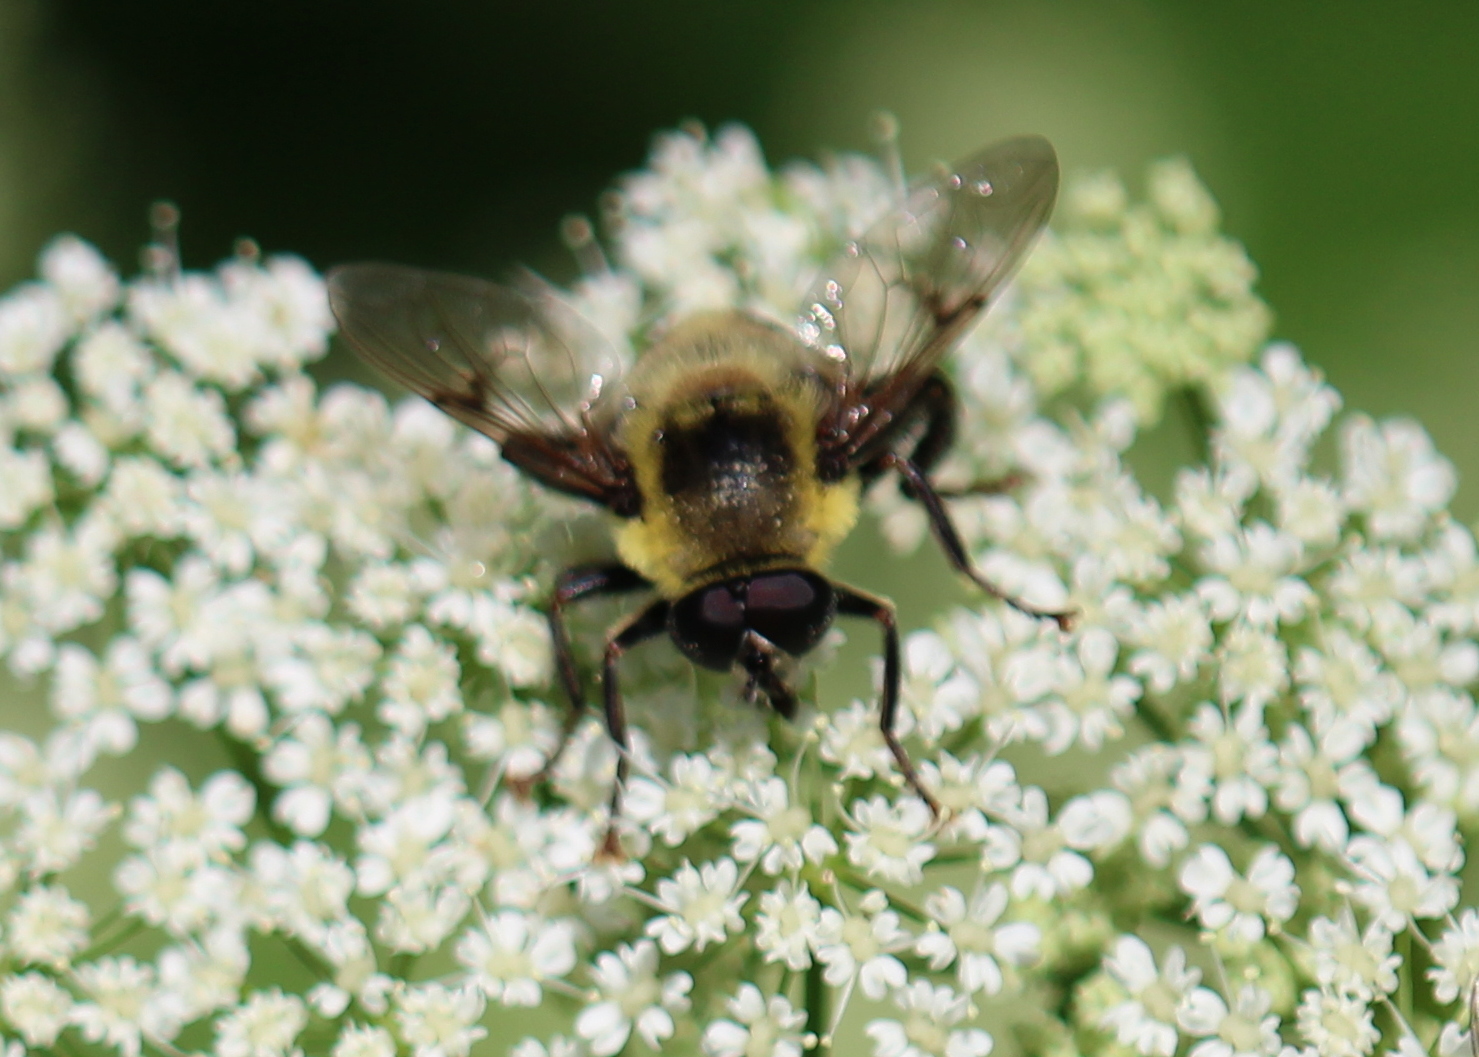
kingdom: Animalia
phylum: Arthropoda
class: Insecta
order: Diptera
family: Syrphidae
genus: Imatisma
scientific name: Imatisma posticata
